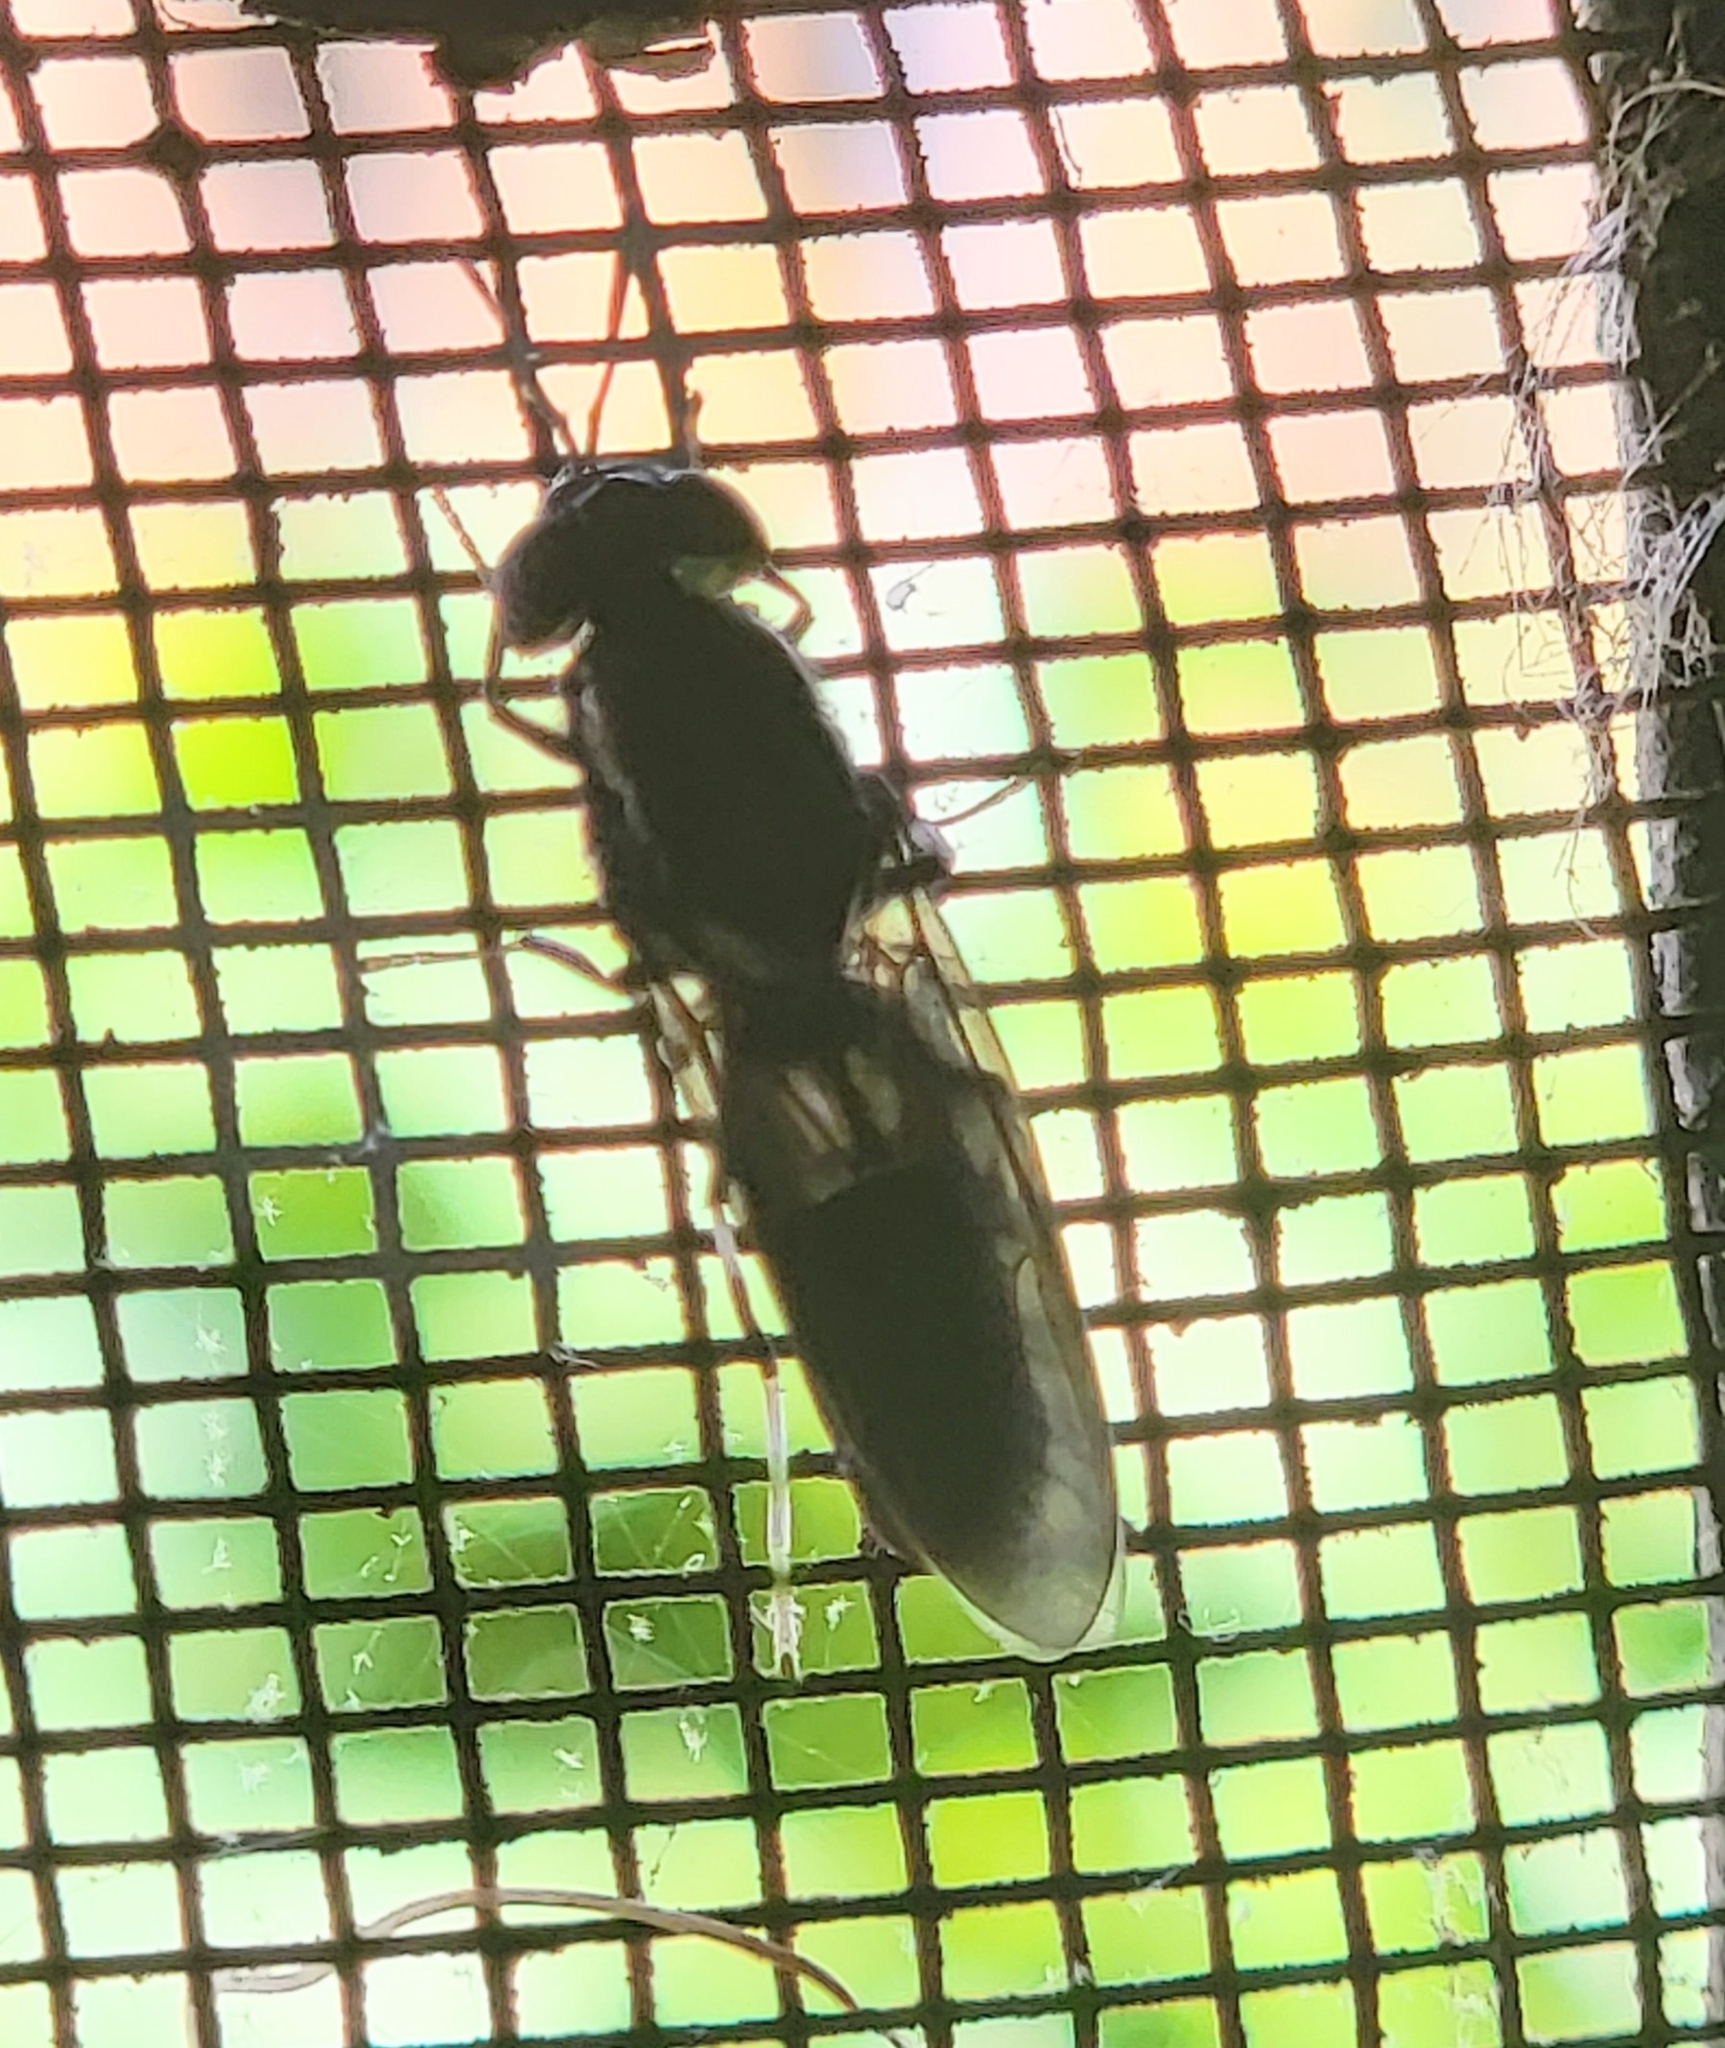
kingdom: Animalia
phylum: Arthropoda
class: Insecta
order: Diptera
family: Stratiomyidae
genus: Hermetia
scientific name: Hermetia illucens
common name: Black soldier fly
